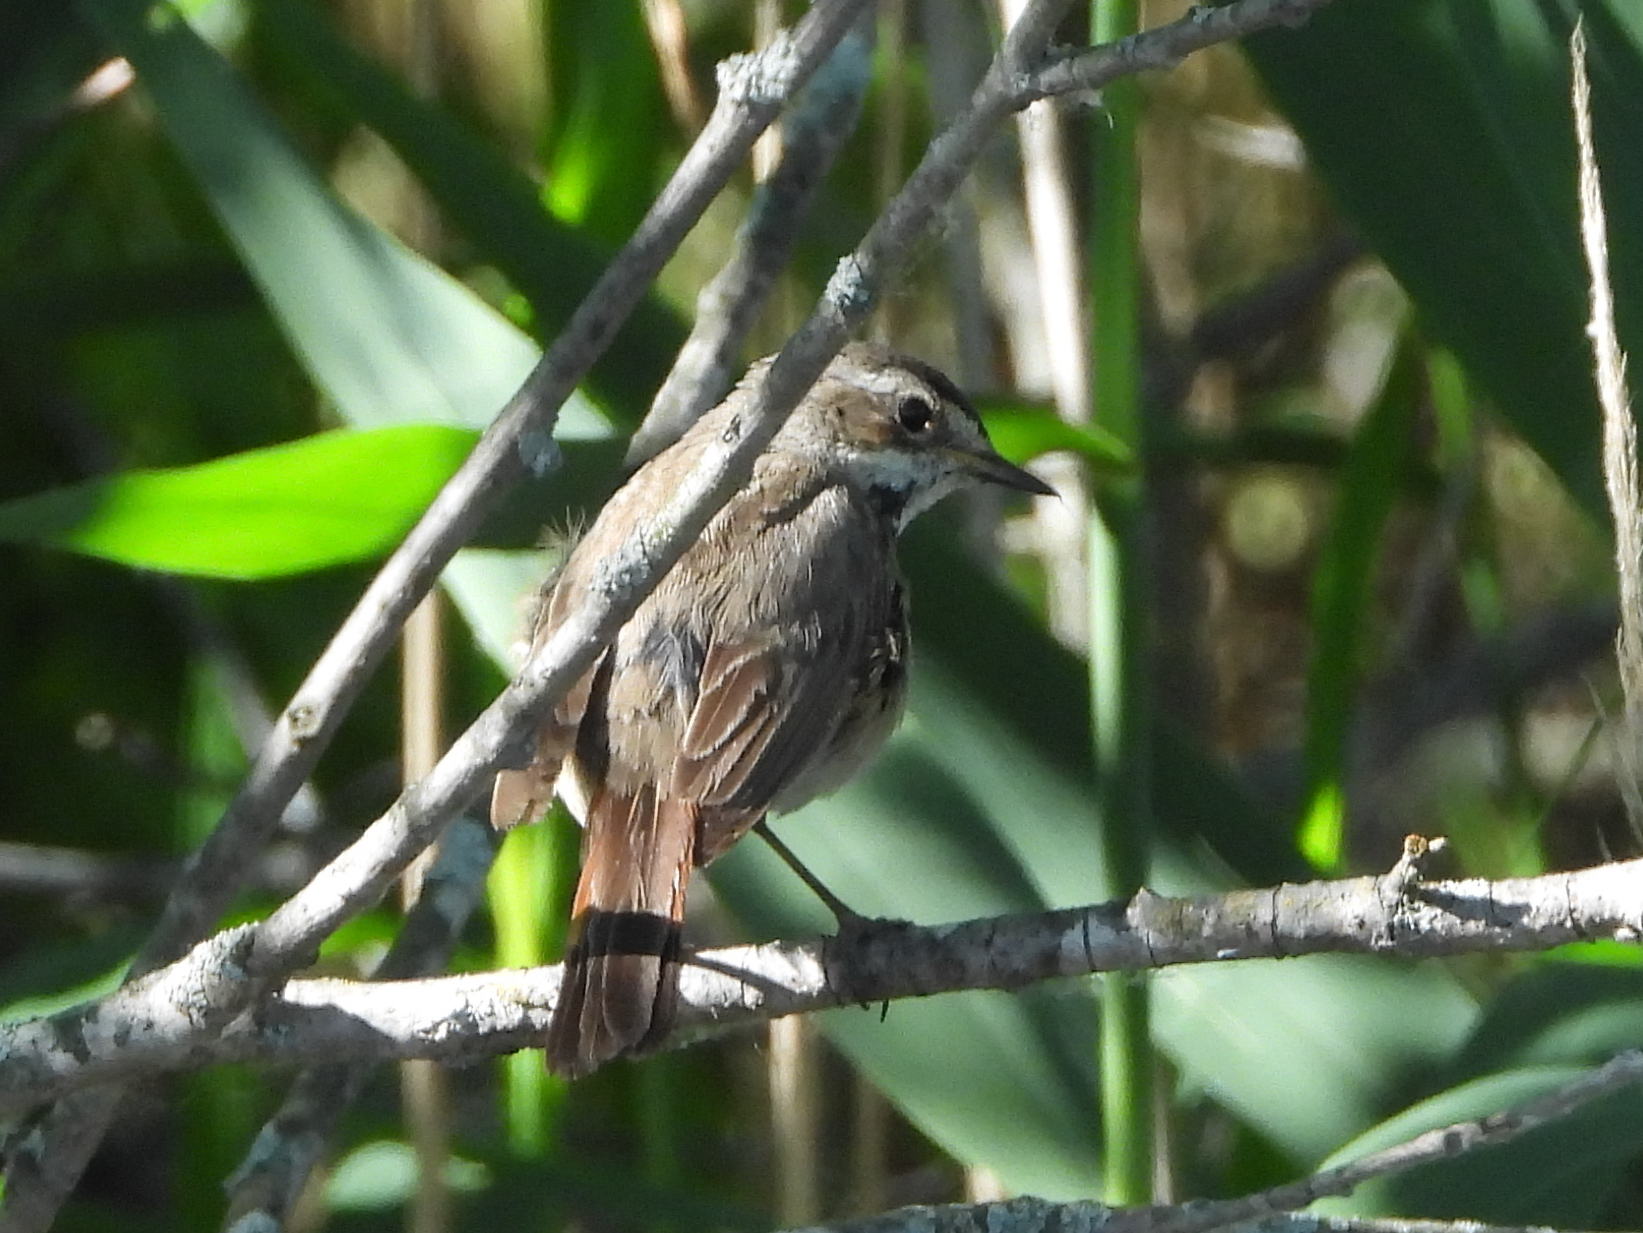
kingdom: Animalia
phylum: Chordata
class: Aves
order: Passeriformes
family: Muscicapidae
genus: Luscinia
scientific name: Luscinia svecica
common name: Bluethroat
